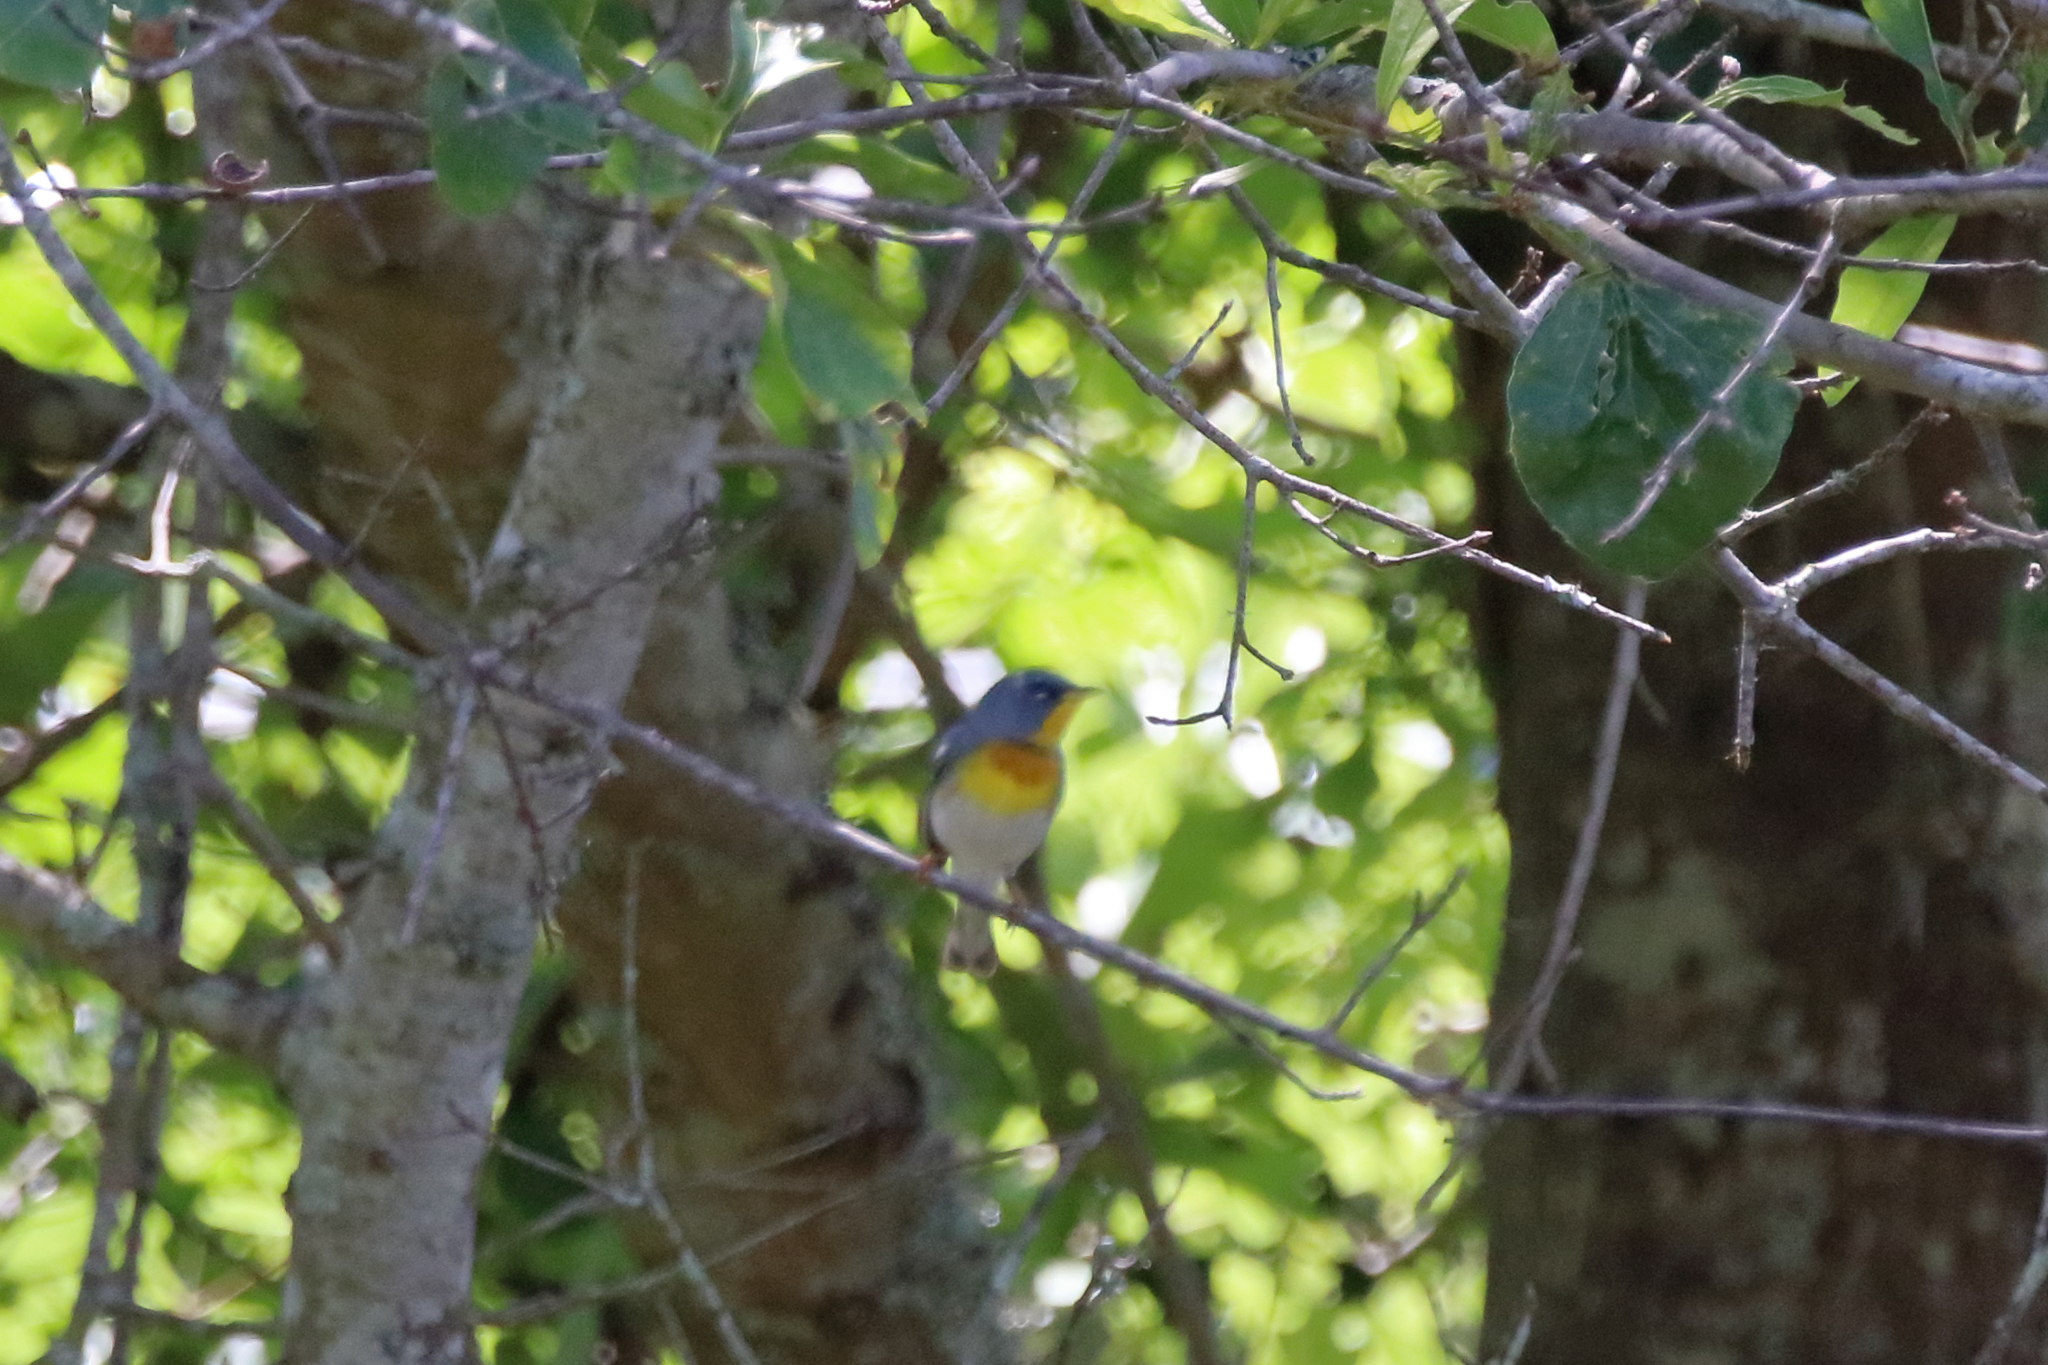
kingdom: Animalia
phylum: Chordata
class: Aves
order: Passeriformes
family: Parulidae
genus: Setophaga
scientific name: Setophaga americana
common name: Northern parula
